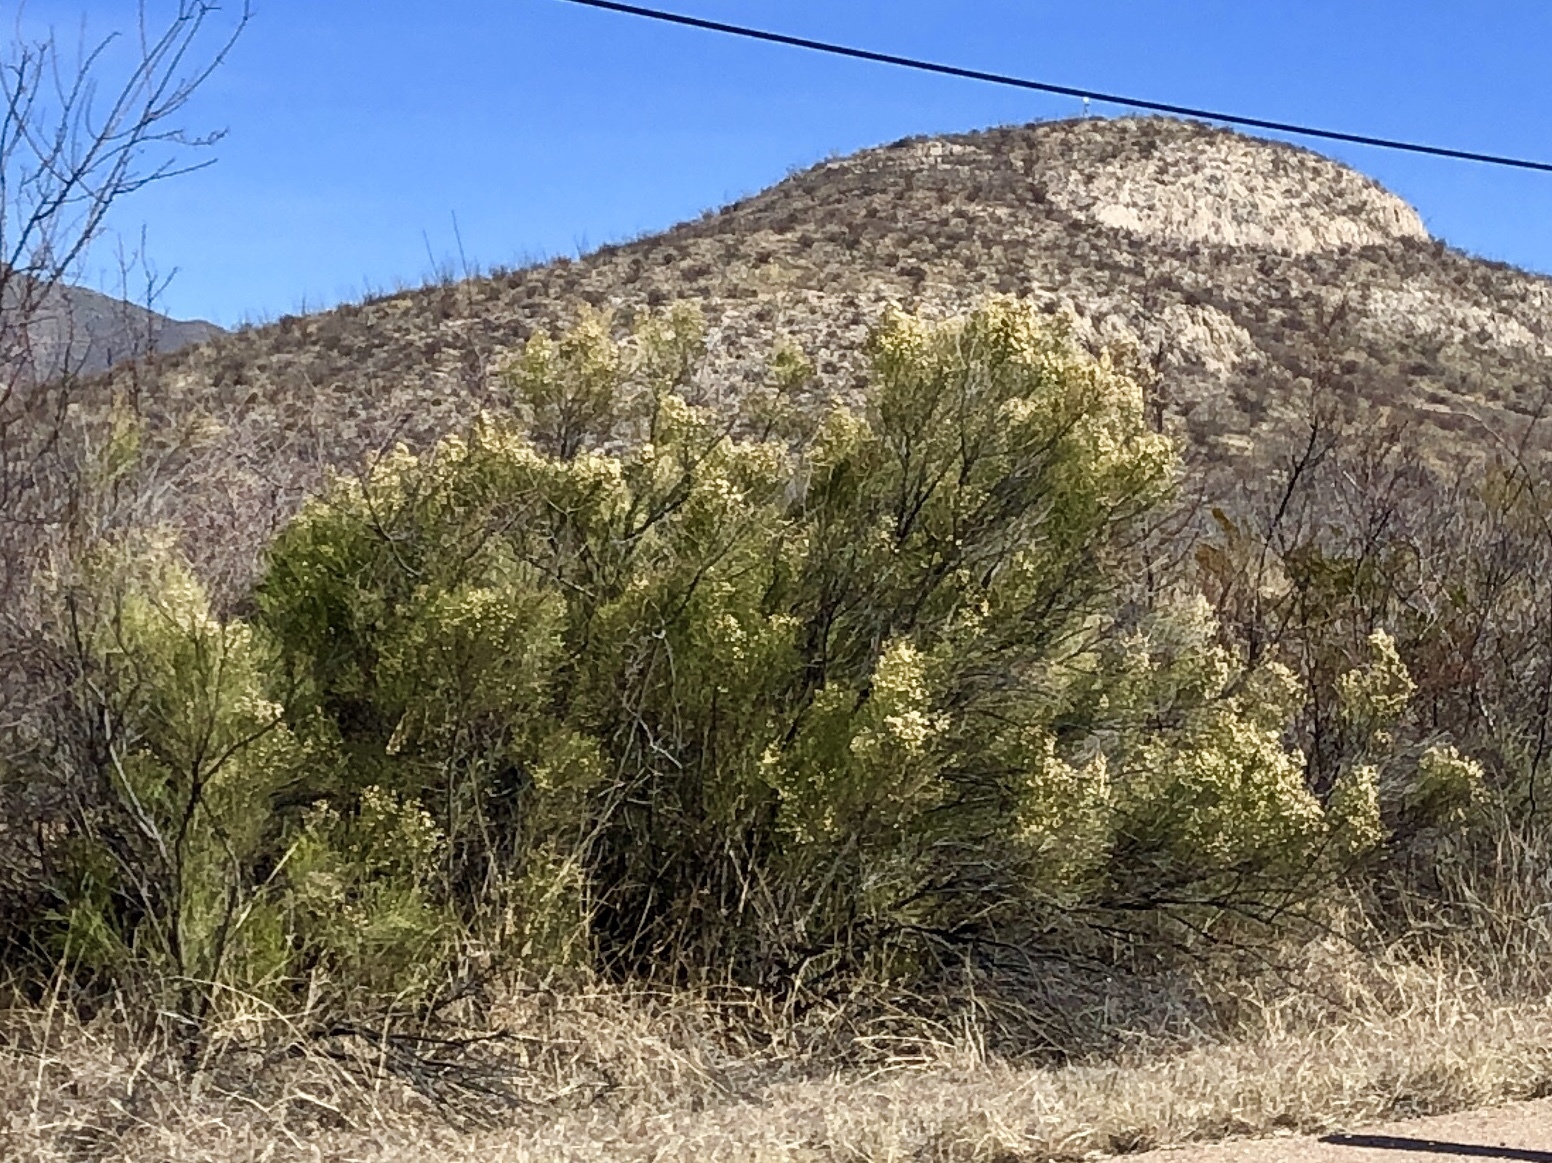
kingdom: Plantae
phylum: Tracheophyta
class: Magnoliopsida
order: Asterales
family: Asteraceae
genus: Baccharis
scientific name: Baccharis sarothroides
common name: Desert-broom
